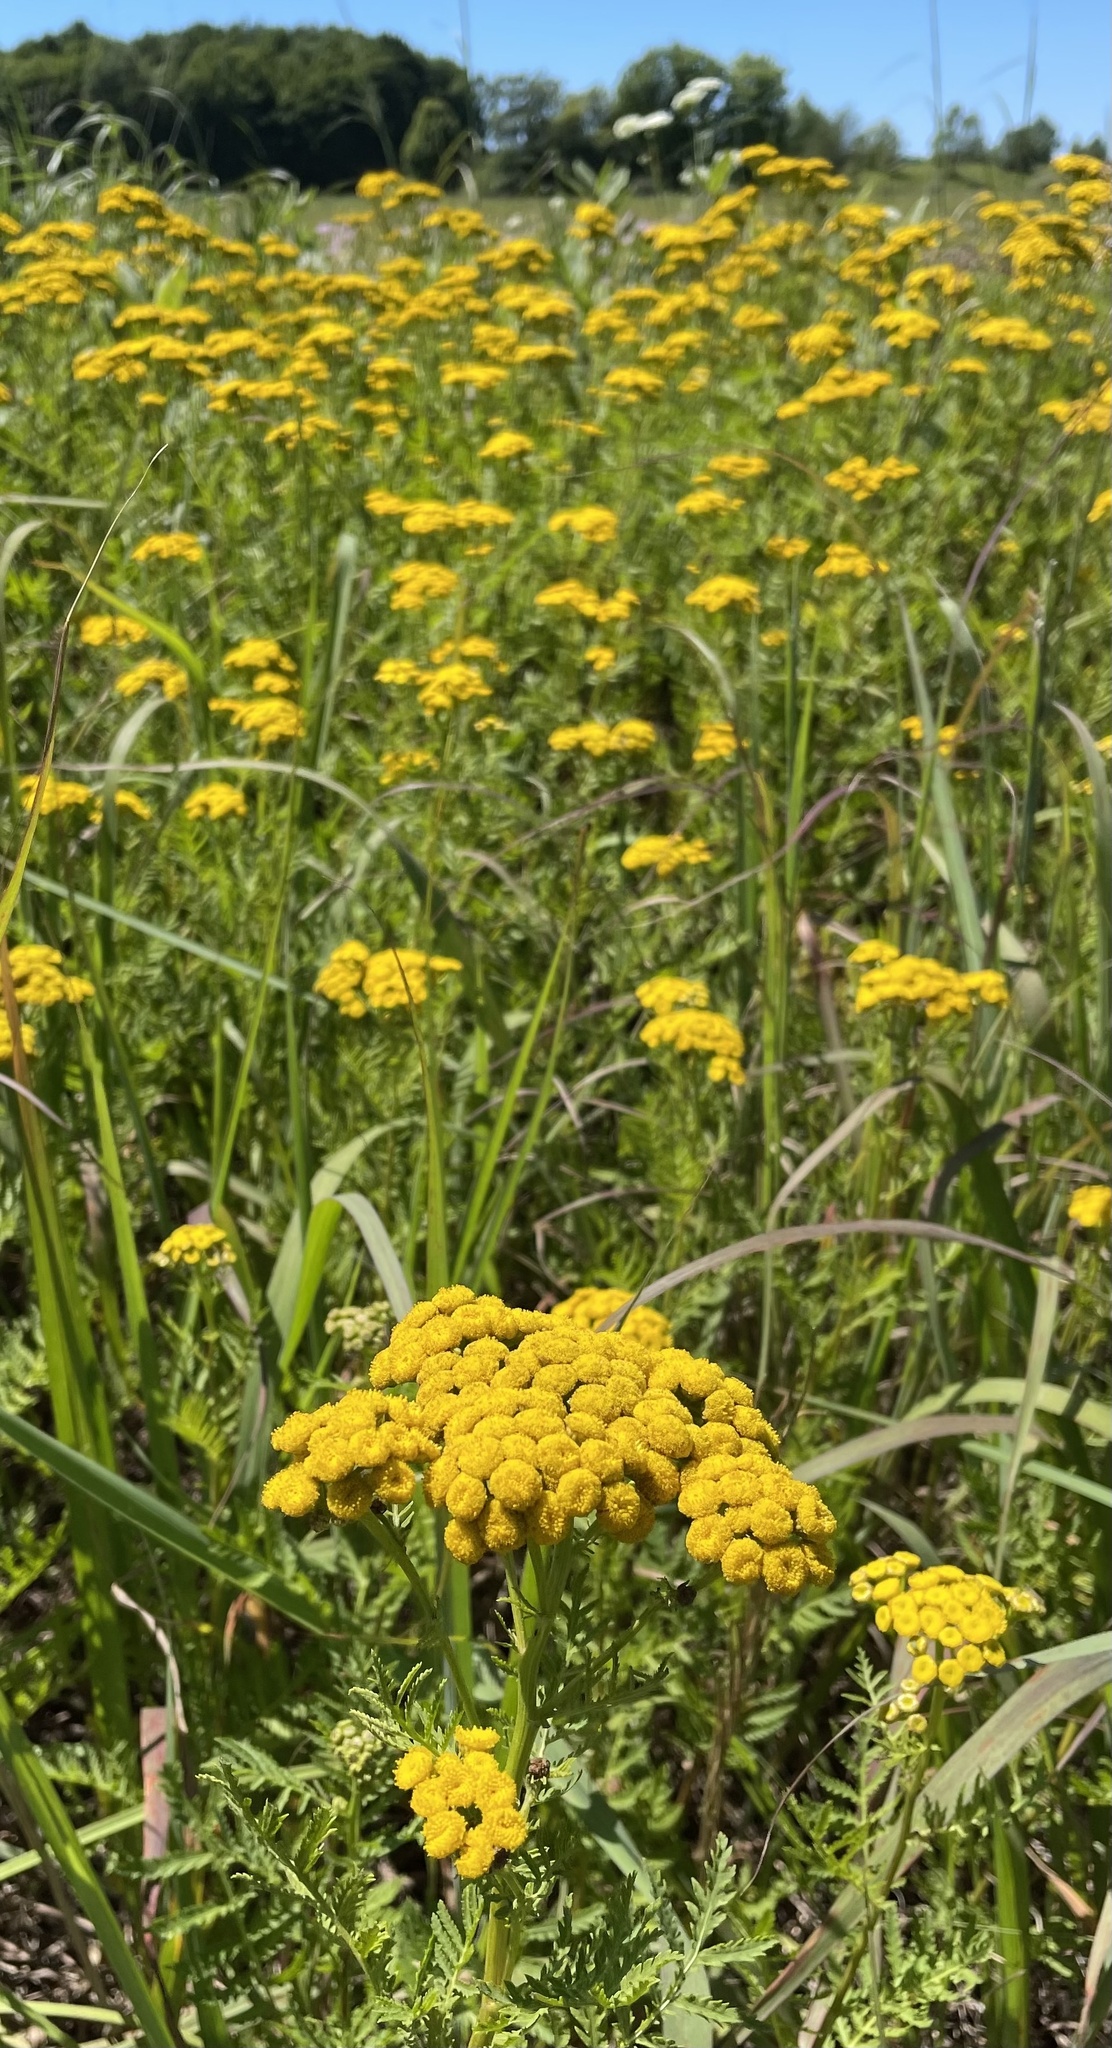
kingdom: Plantae
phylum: Tracheophyta
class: Magnoliopsida
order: Asterales
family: Asteraceae
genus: Tanacetum
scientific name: Tanacetum vulgare
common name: Common tansy
